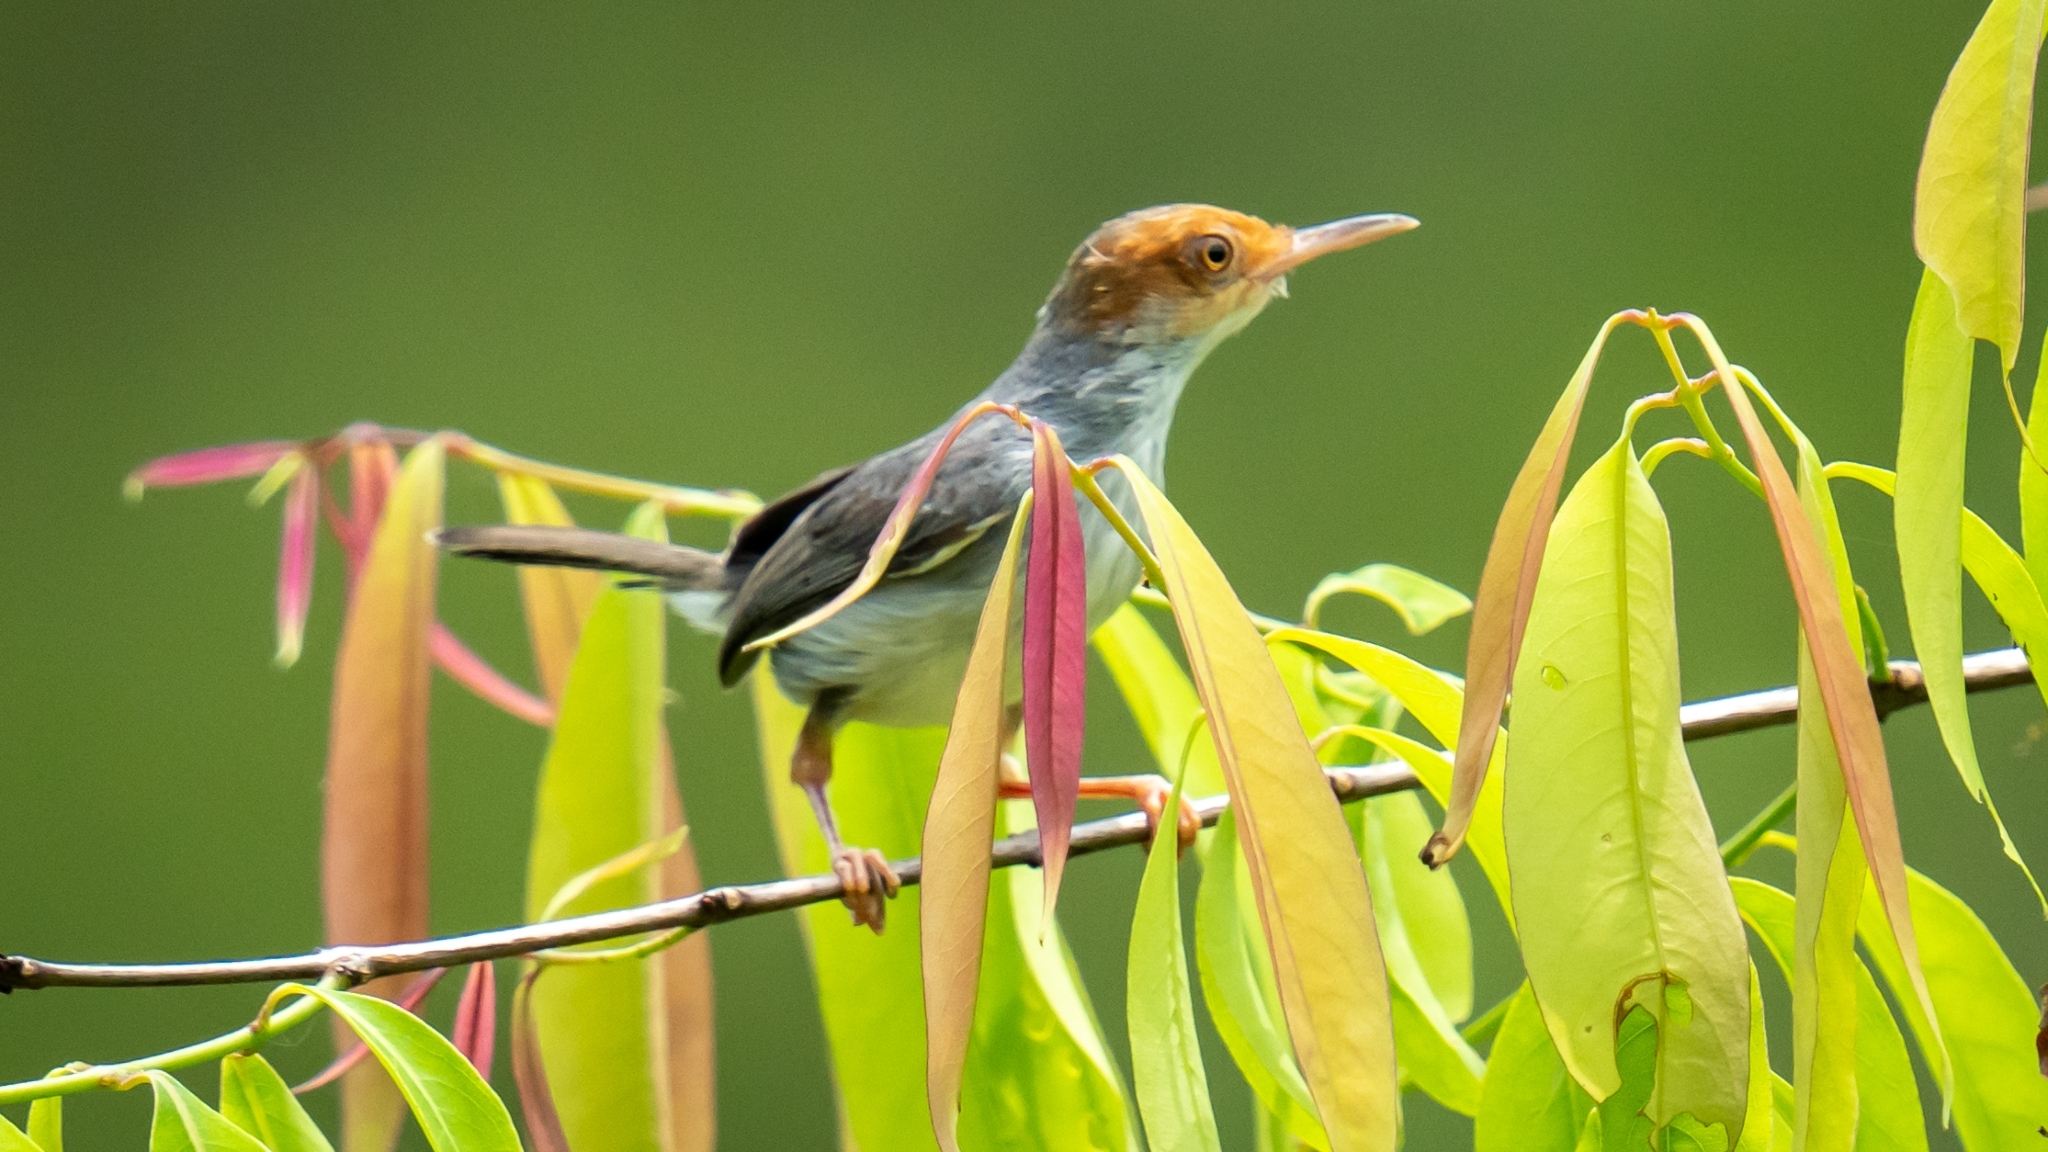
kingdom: Animalia
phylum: Chordata
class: Aves
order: Passeriformes
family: Cisticolidae
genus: Orthotomus
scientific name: Orthotomus ruficeps
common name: Ashy tailorbird
